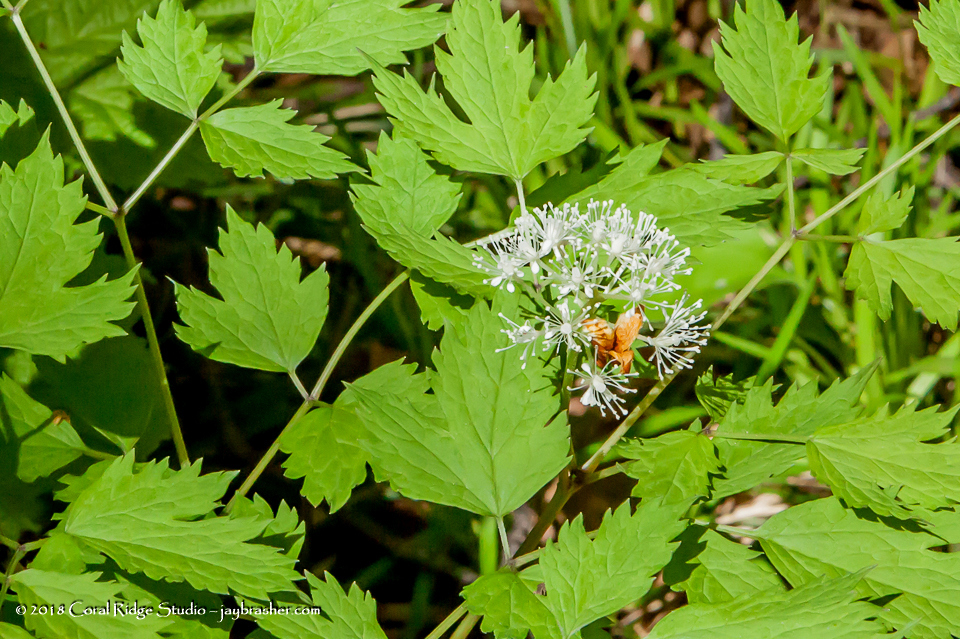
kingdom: Plantae
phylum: Tracheophyta
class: Magnoliopsida
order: Ranunculales
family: Ranunculaceae
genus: Actaea
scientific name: Actaea rubra
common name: Red baneberry
